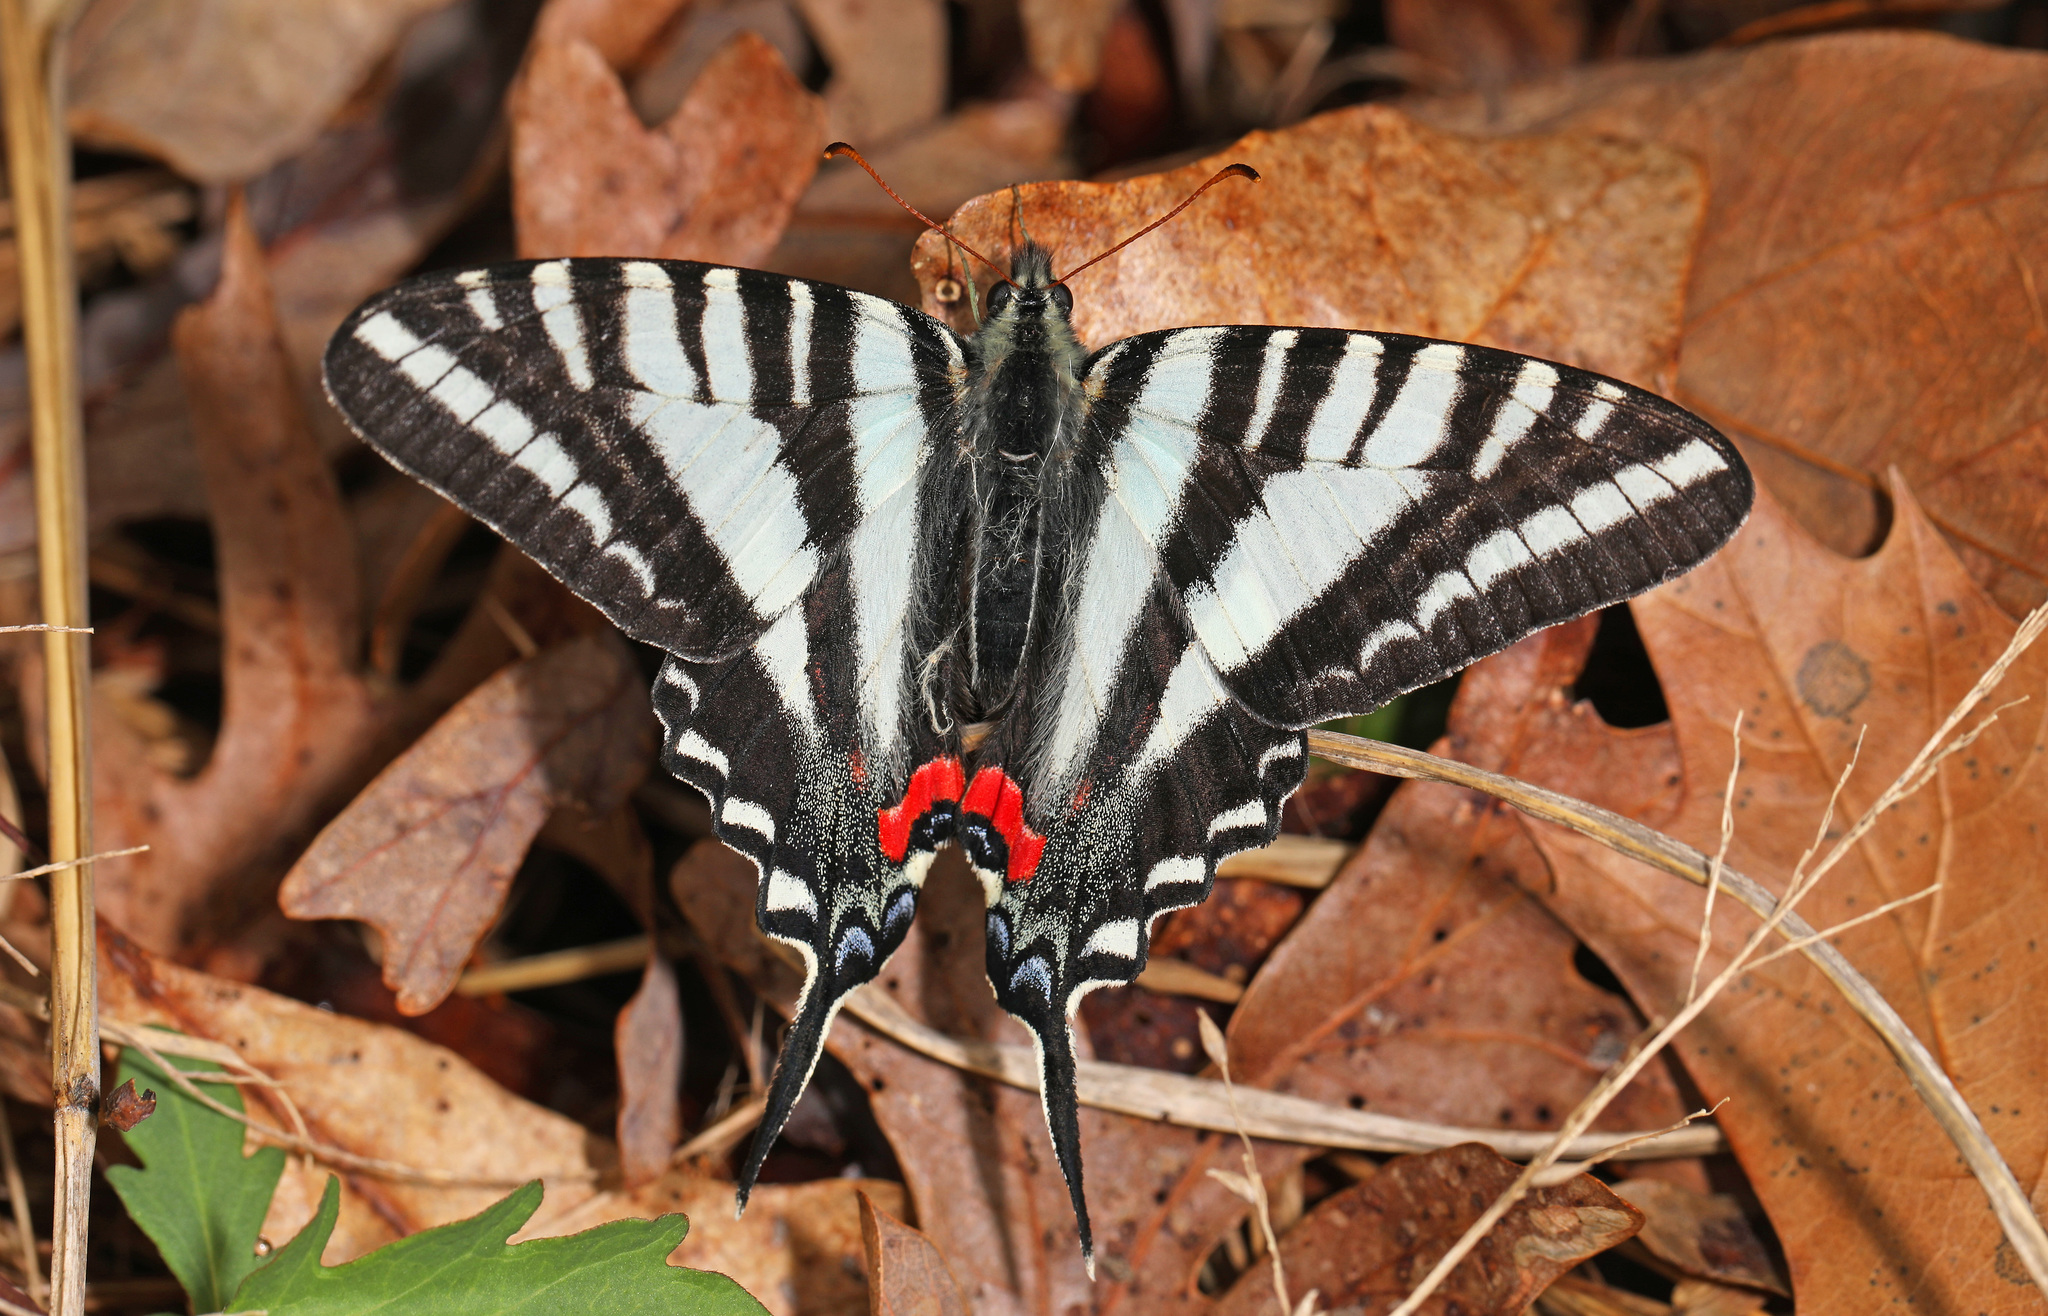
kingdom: Animalia
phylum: Arthropoda
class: Insecta
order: Lepidoptera
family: Papilionidae
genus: Protographium
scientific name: Protographium marcellus
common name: Zebra swallowtail
